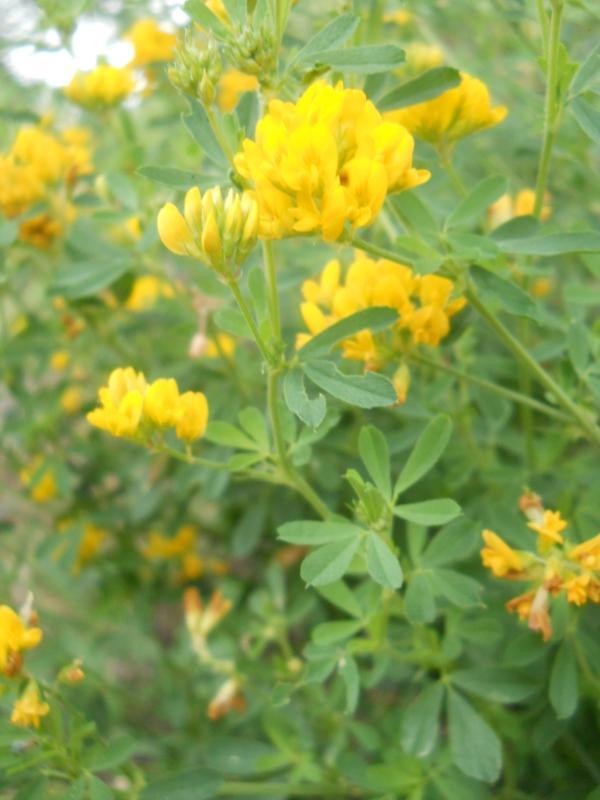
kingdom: Plantae
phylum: Tracheophyta
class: Magnoliopsida
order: Fabales
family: Fabaceae
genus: Medicago
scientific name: Medicago falcata
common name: Sickle medick
